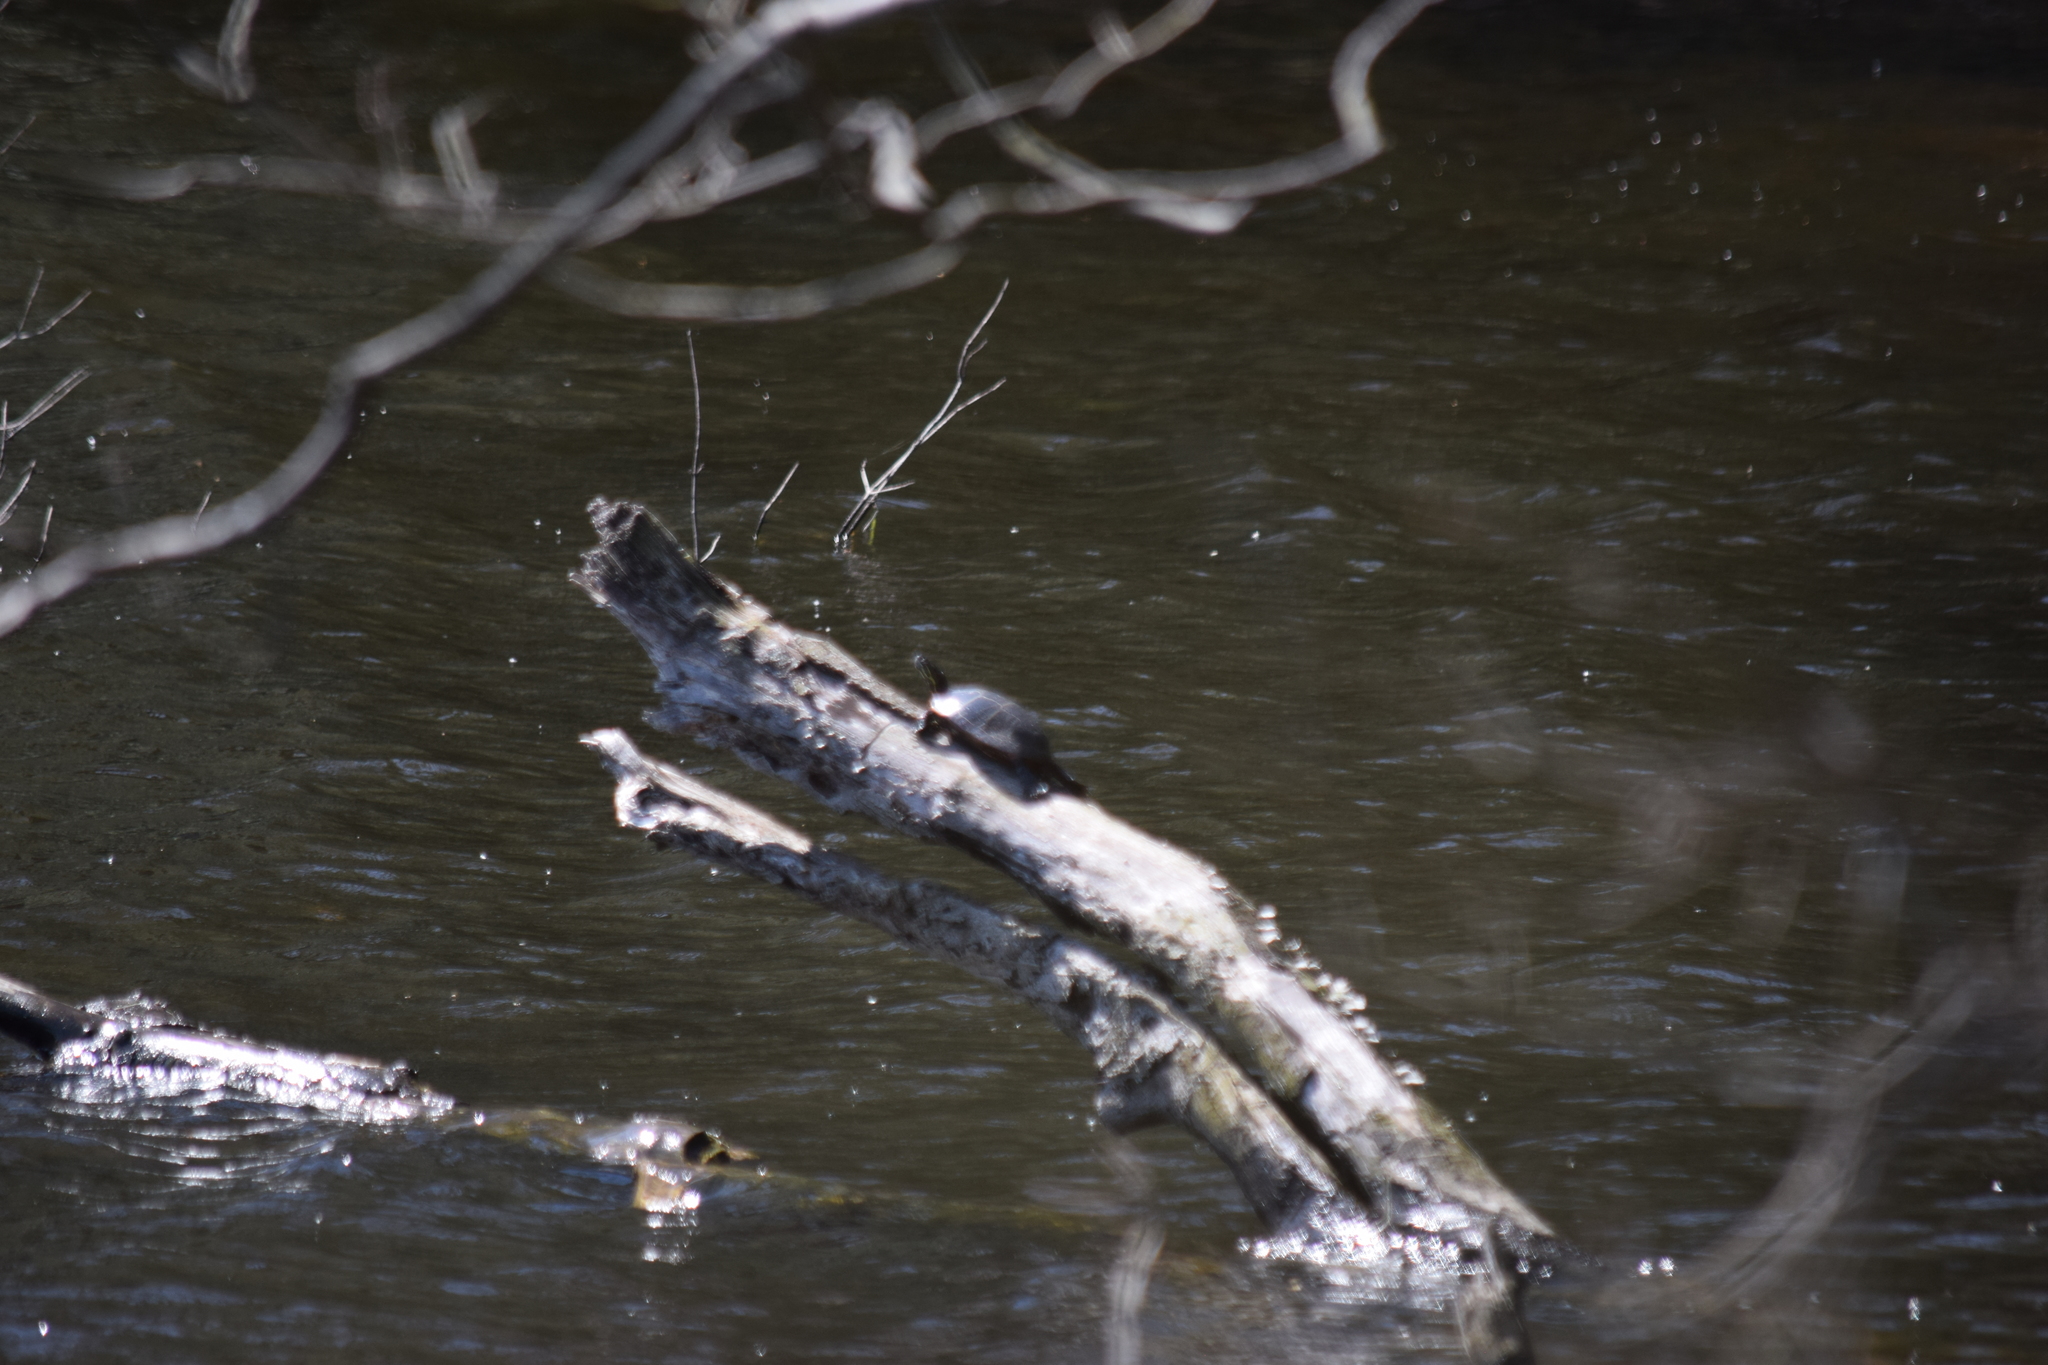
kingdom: Animalia
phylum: Chordata
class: Testudines
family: Emydidae
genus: Chrysemys
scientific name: Chrysemys picta
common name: Painted turtle
